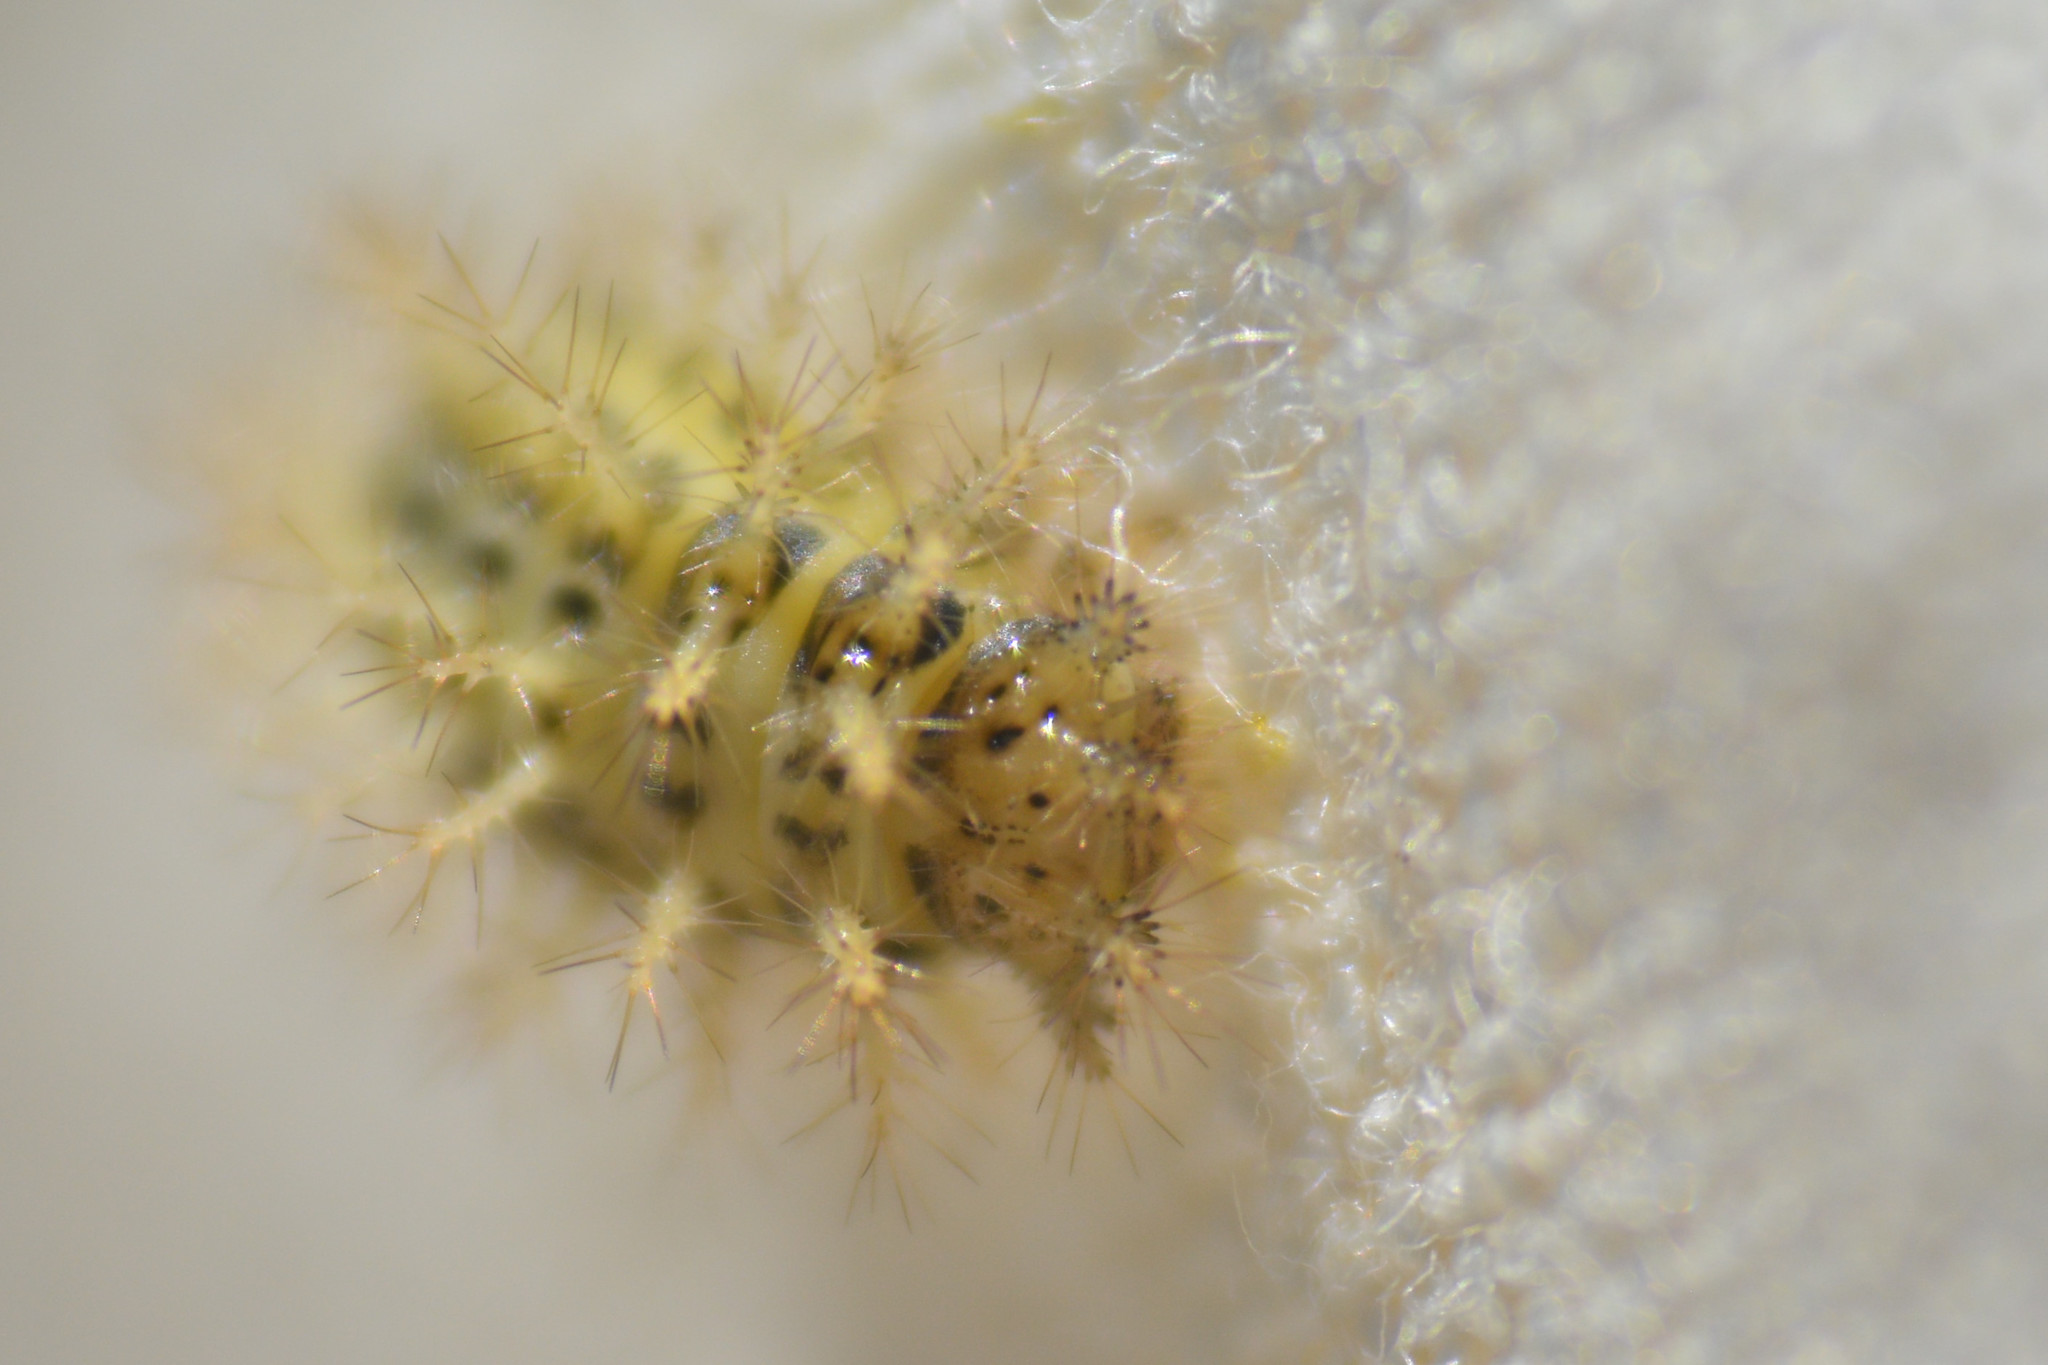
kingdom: Animalia
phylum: Arthropoda
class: Insecta
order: Coleoptera
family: Coccinellidae
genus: Subcoccinella
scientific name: Subcoccinella vigintiquatuorpunctata
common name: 24-spot ladybird
